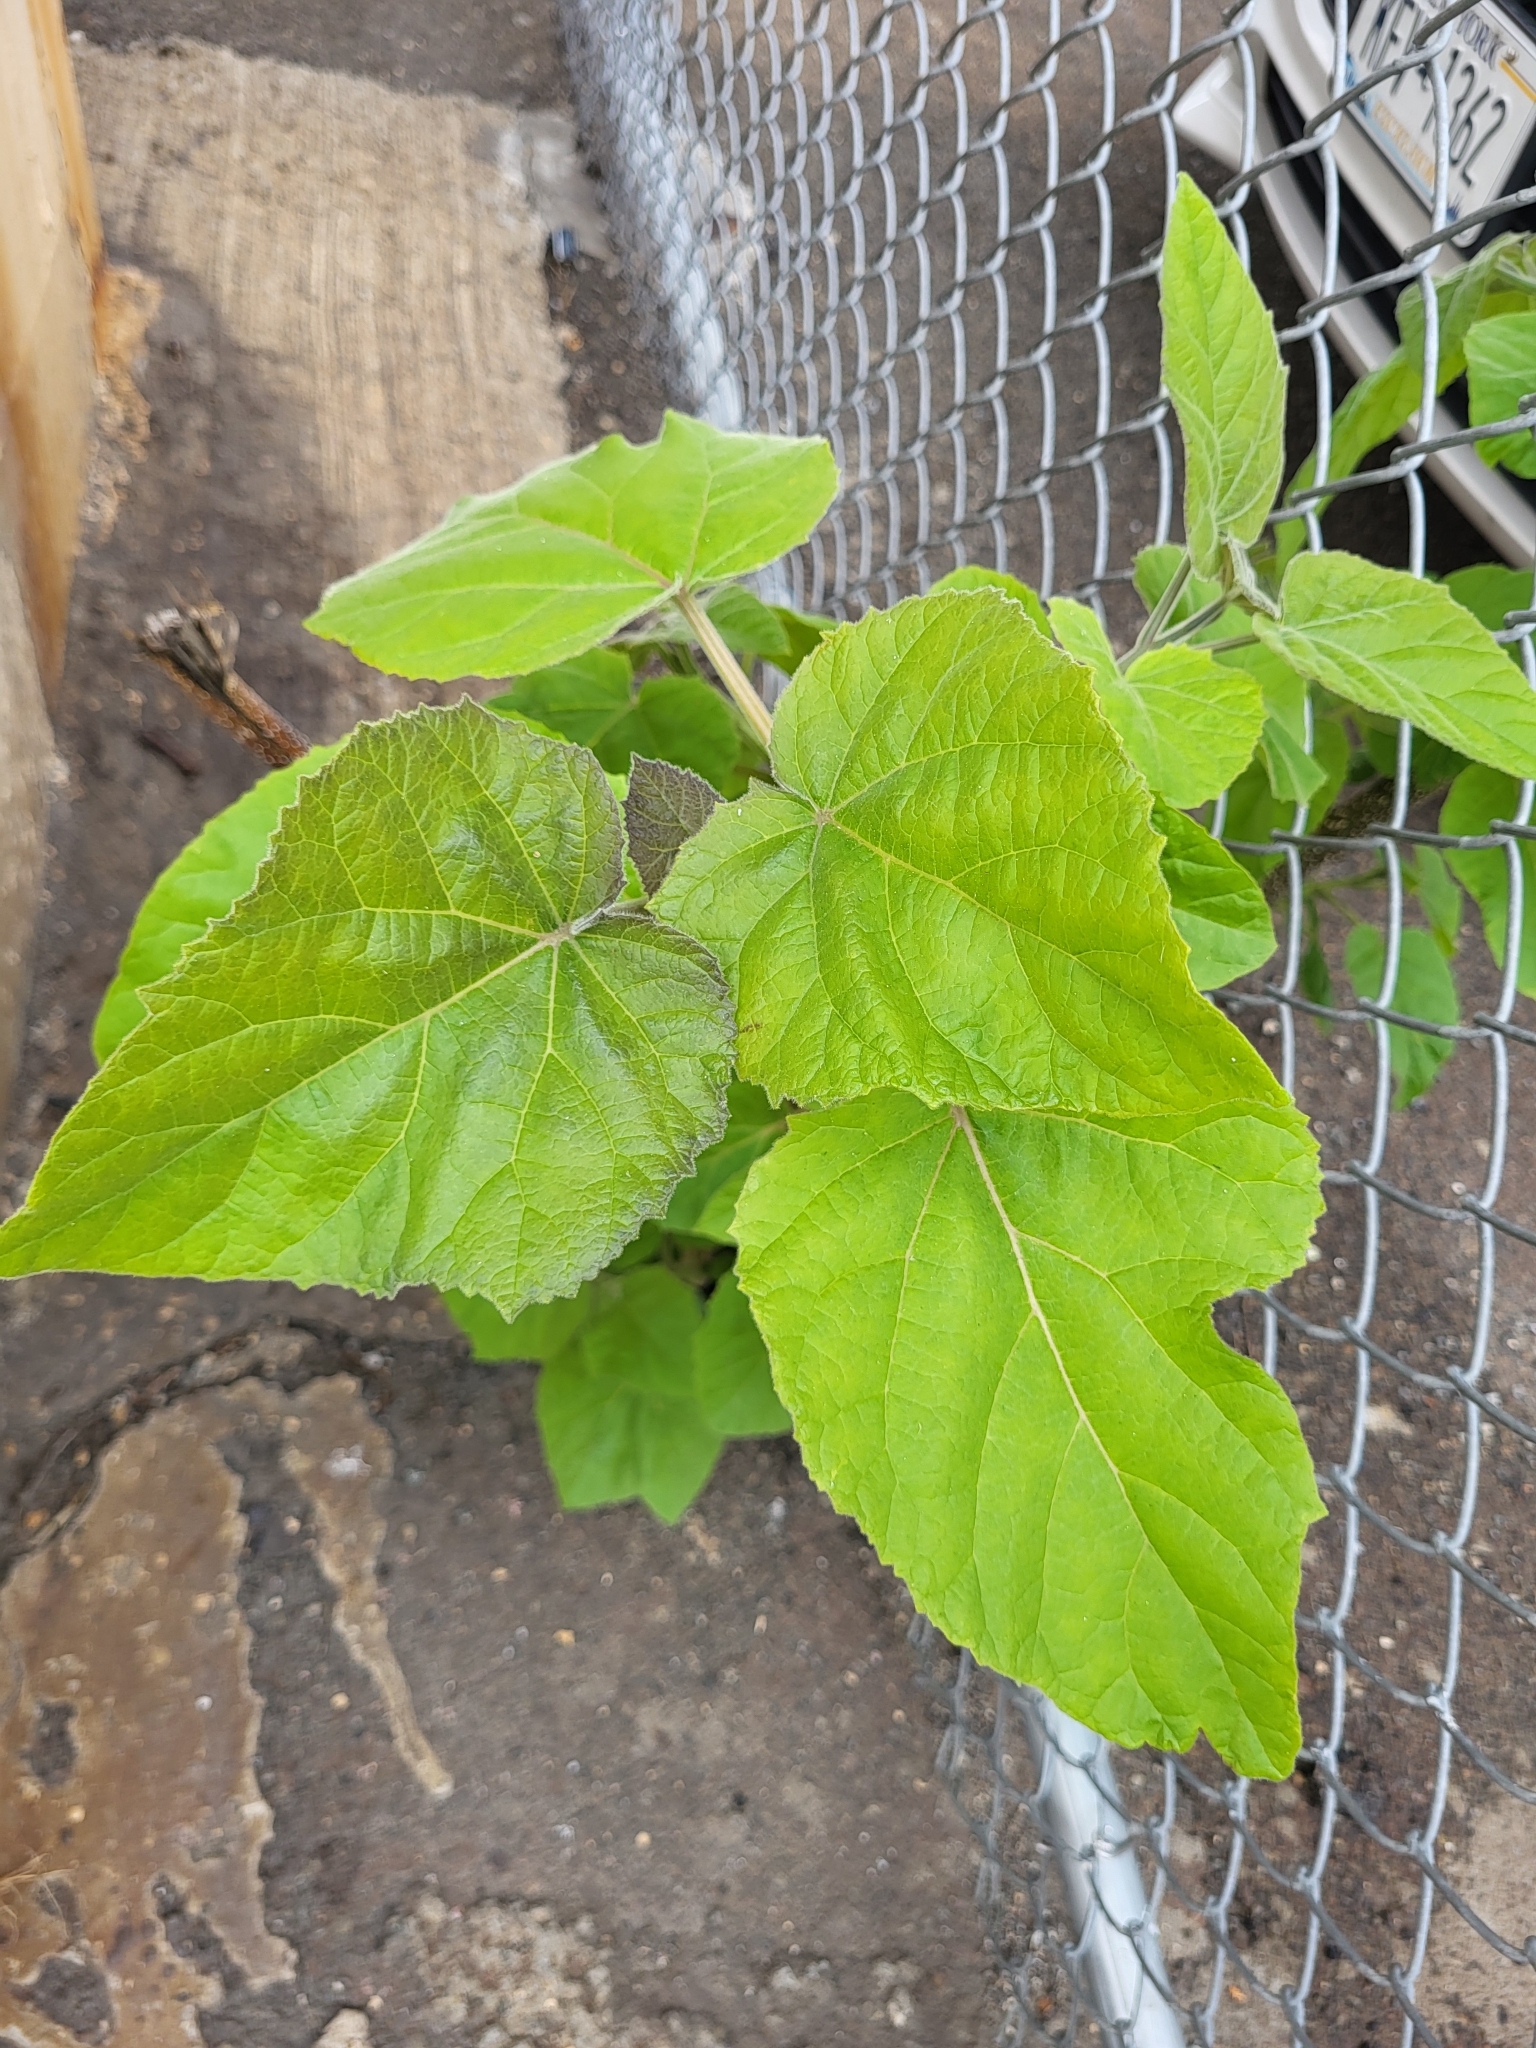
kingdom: Plantae
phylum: Tracheophyta
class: Magnoliopsida
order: Lamiales
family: Paulowniaceae
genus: Paulownia
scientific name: Paulownia tomentosa
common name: Foxglove-tree
